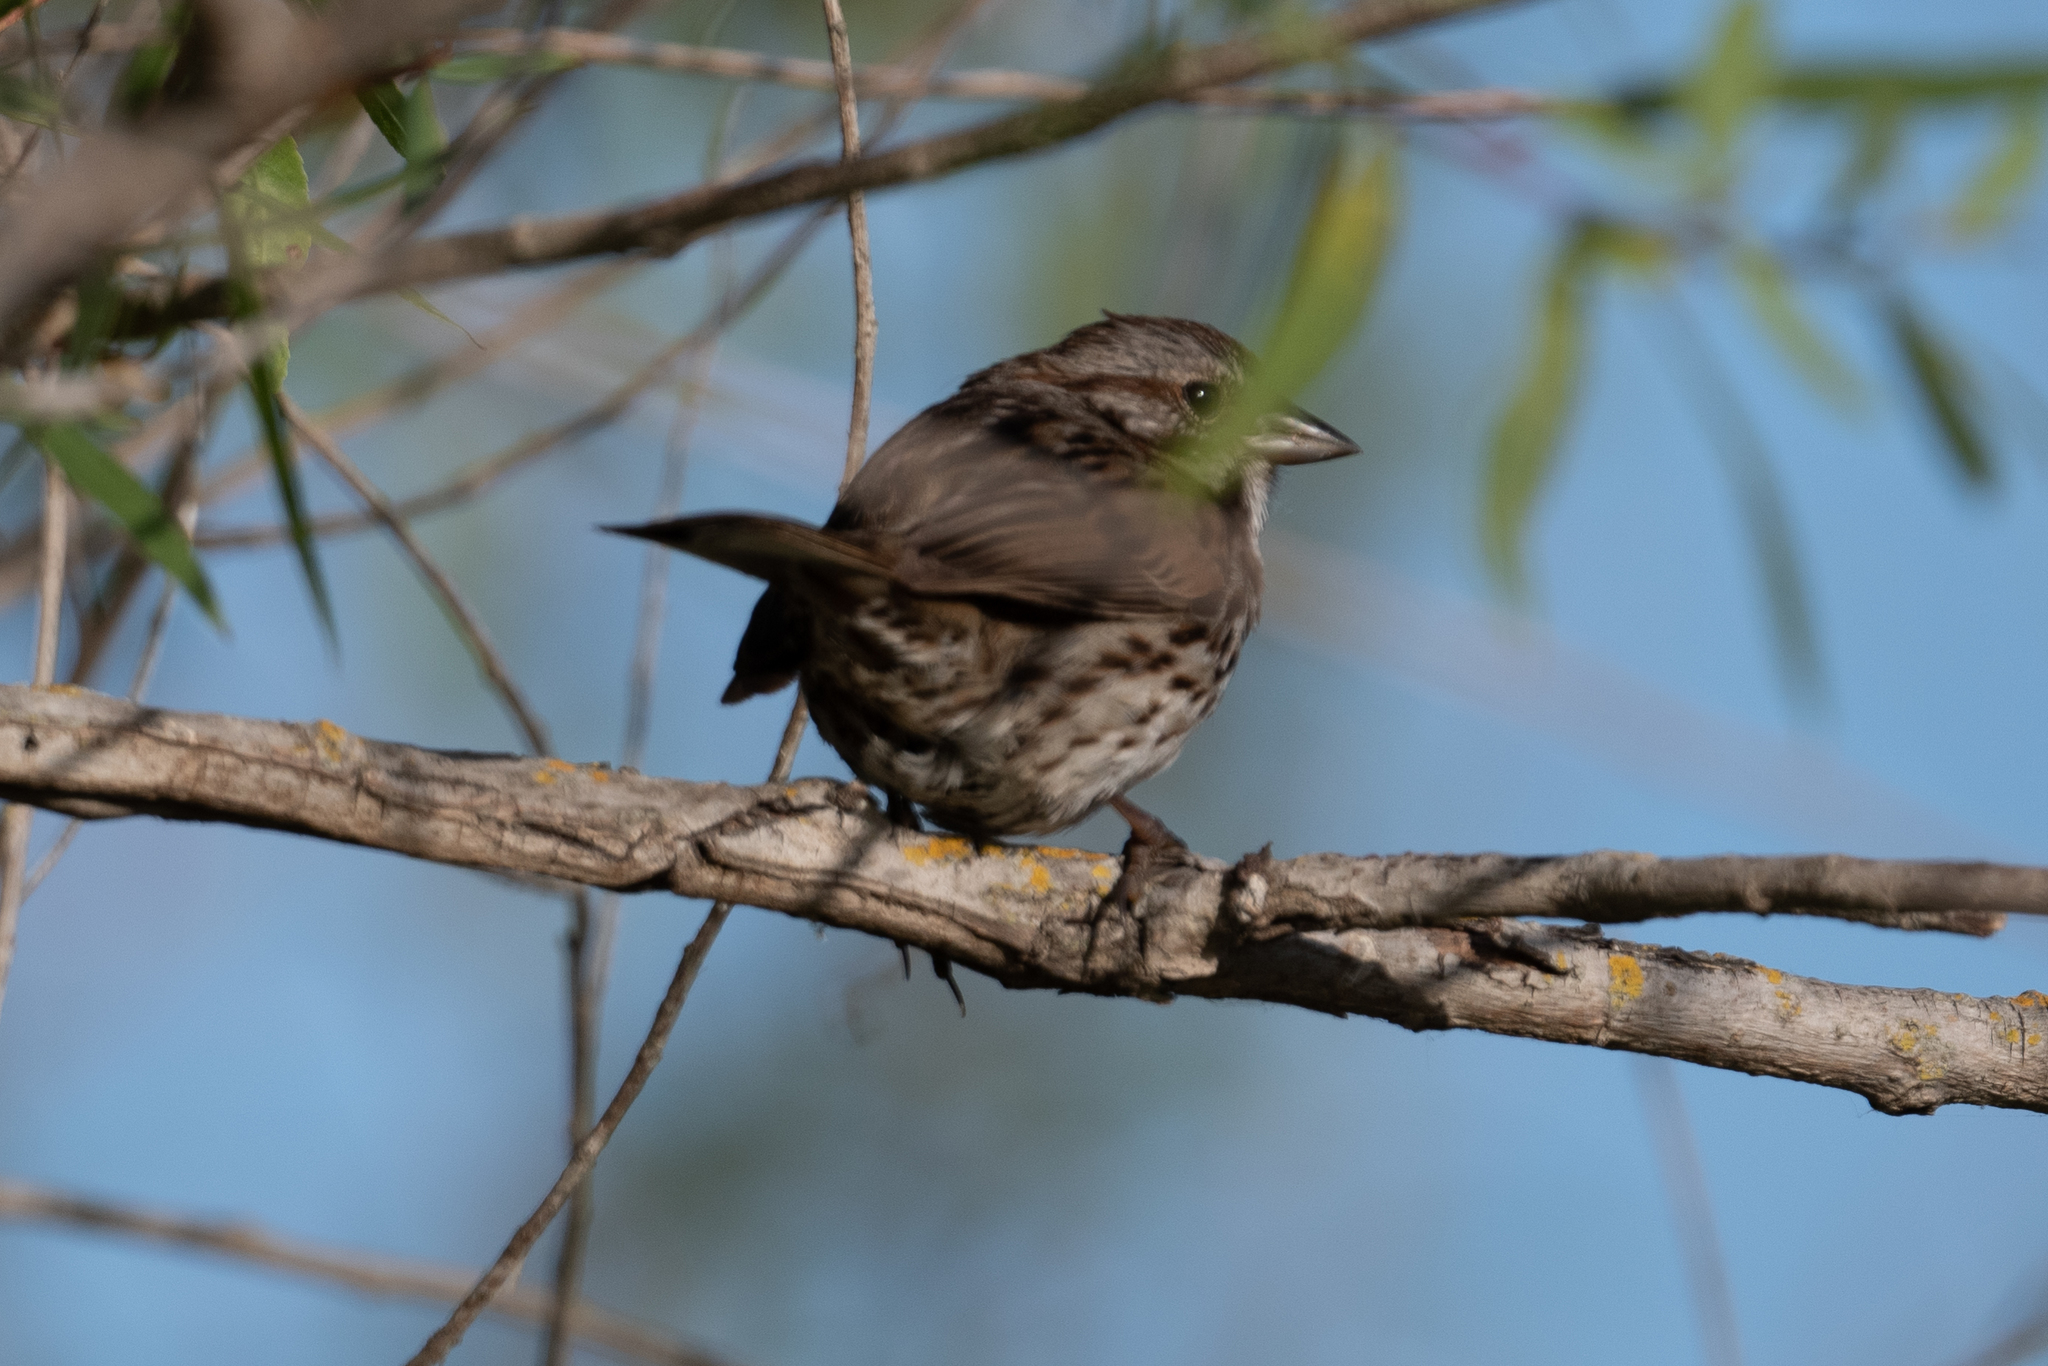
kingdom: Animalia
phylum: Chordata
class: Aves
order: Passeriformes
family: Tyrannidae
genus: Sayornis
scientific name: Sayornis nigricans
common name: Black phoebe
